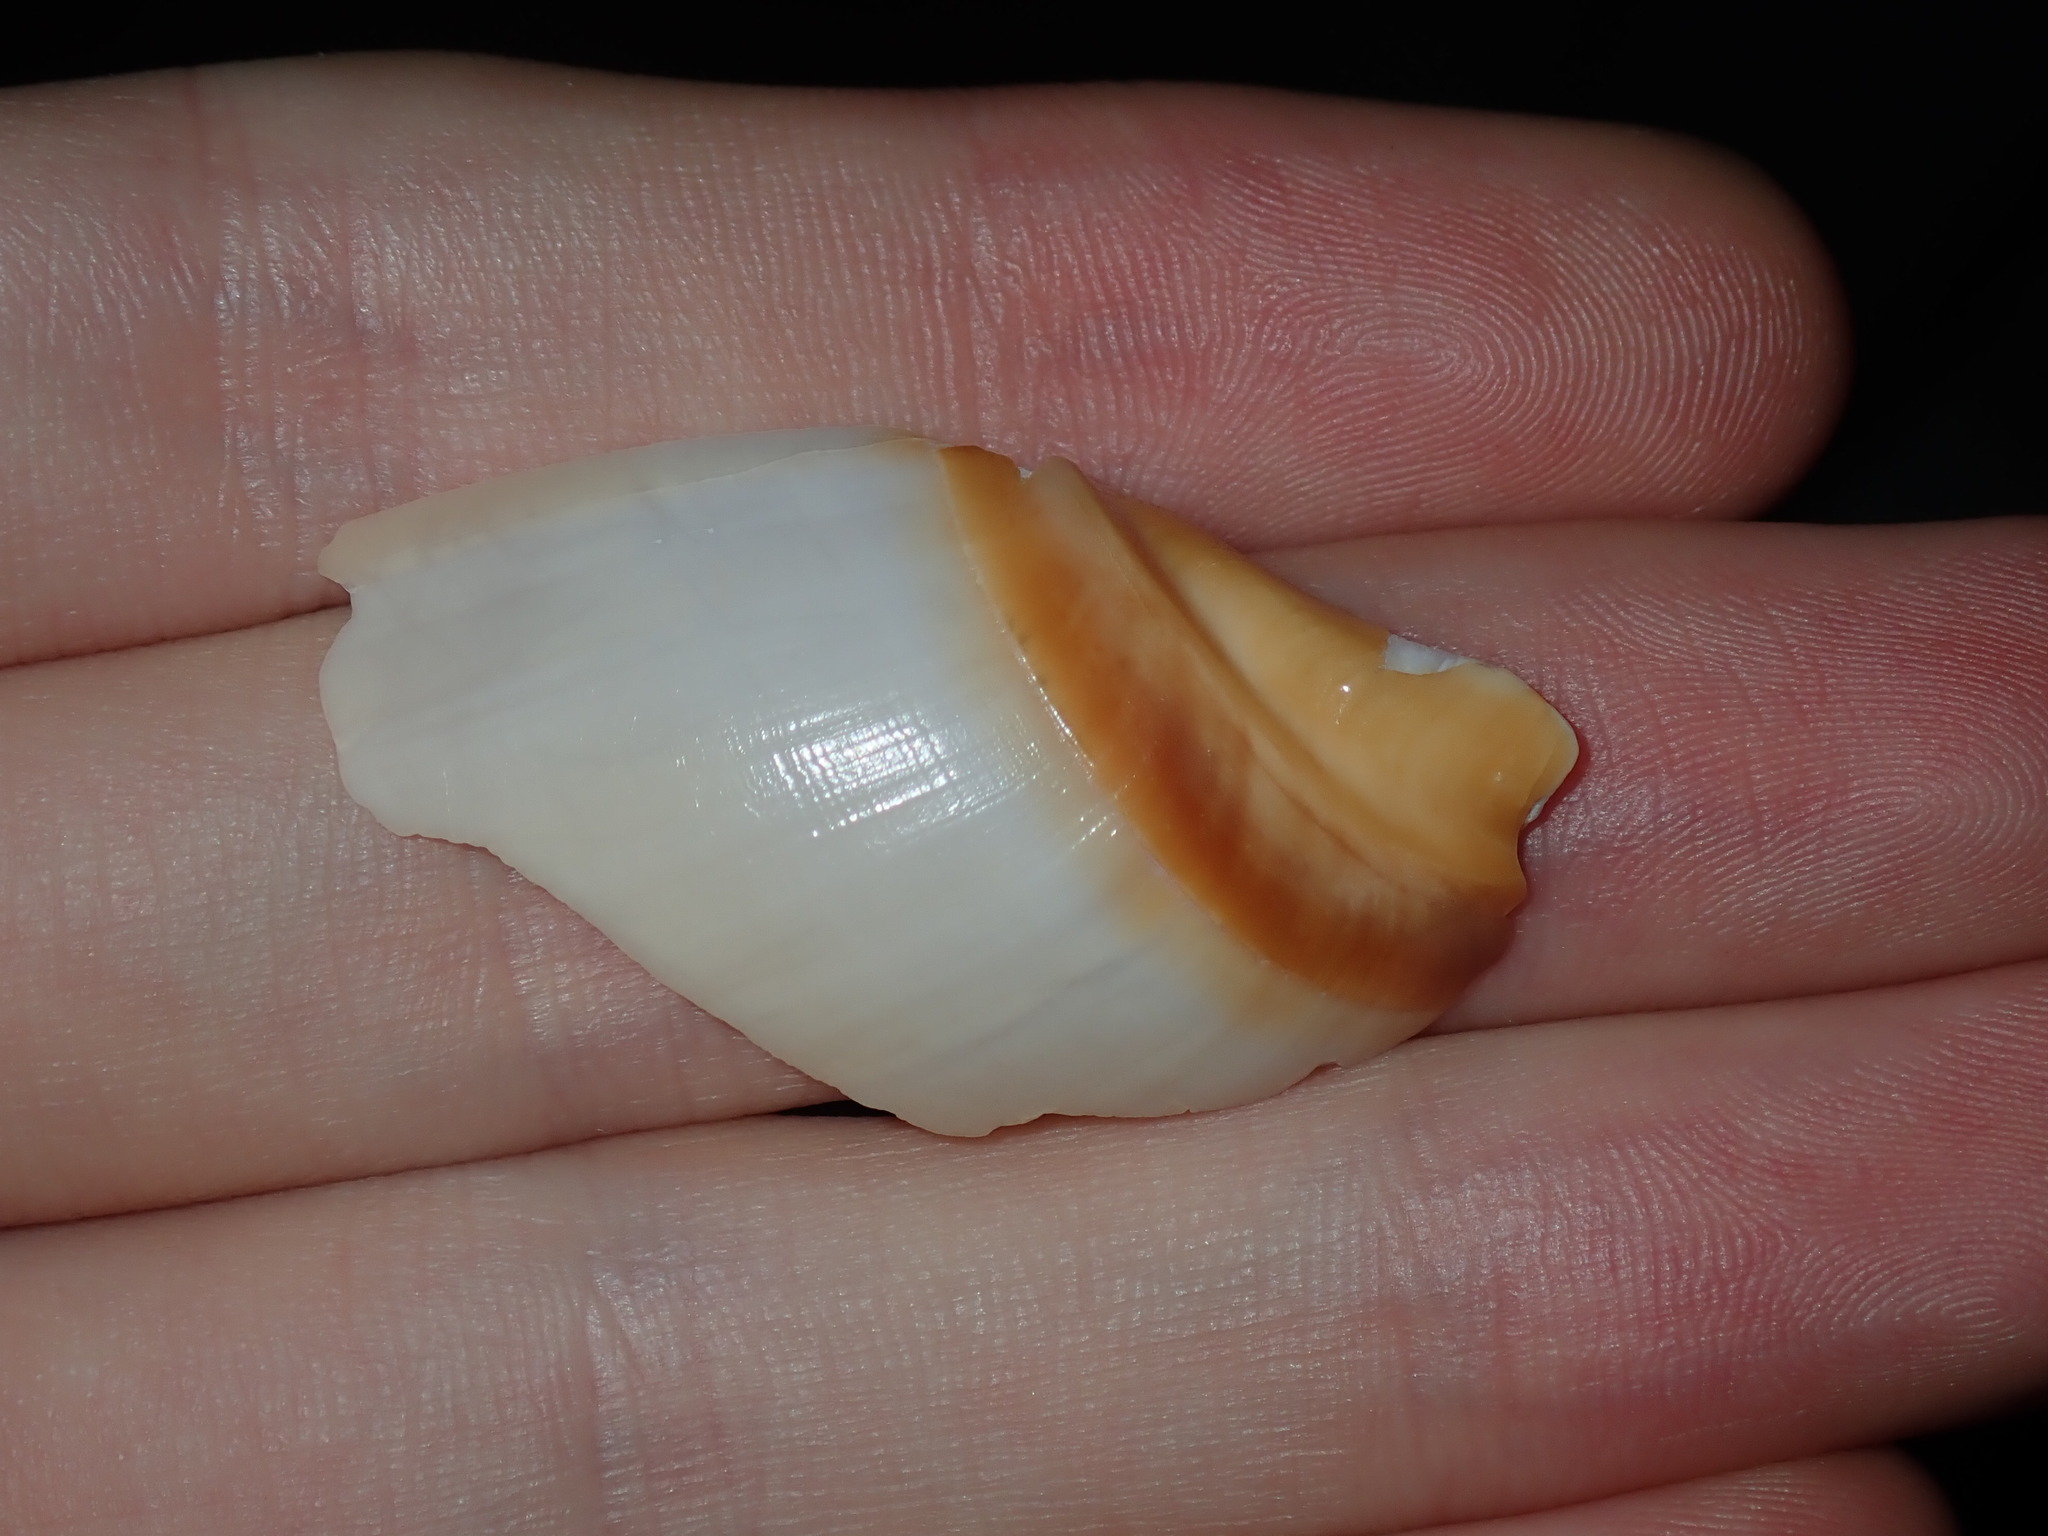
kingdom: Animalia
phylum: Mollusca
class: Gastropoda
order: Neogastropoda
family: Ancillariidae
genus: Ancillista
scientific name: Ancillista velesiana
